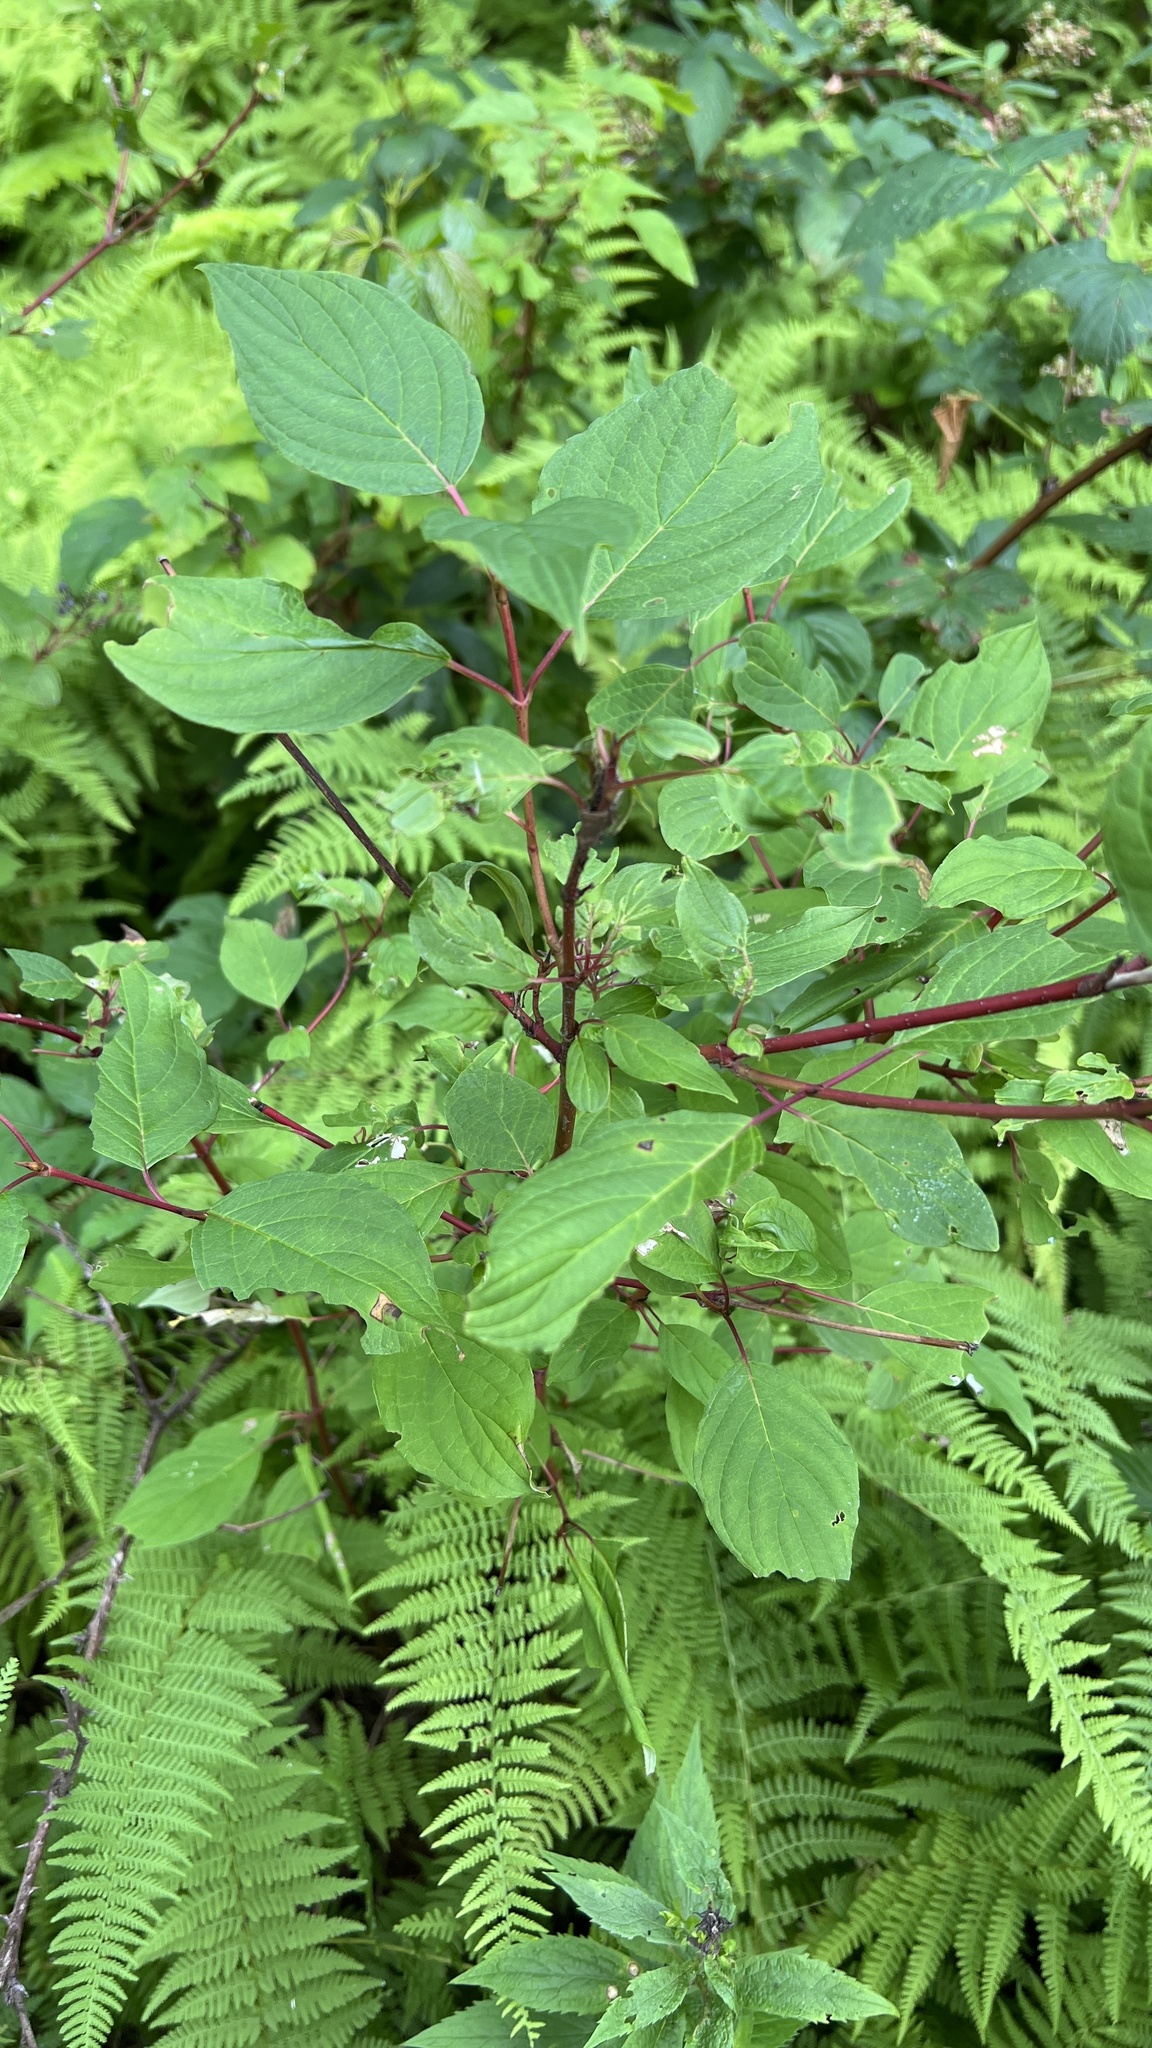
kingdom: Plantae
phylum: Tracheophyta
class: Magnoliopsida
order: Cornales
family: Cornaceae
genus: Cornus
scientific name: Cornus sericea
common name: Red-osier dogwood
